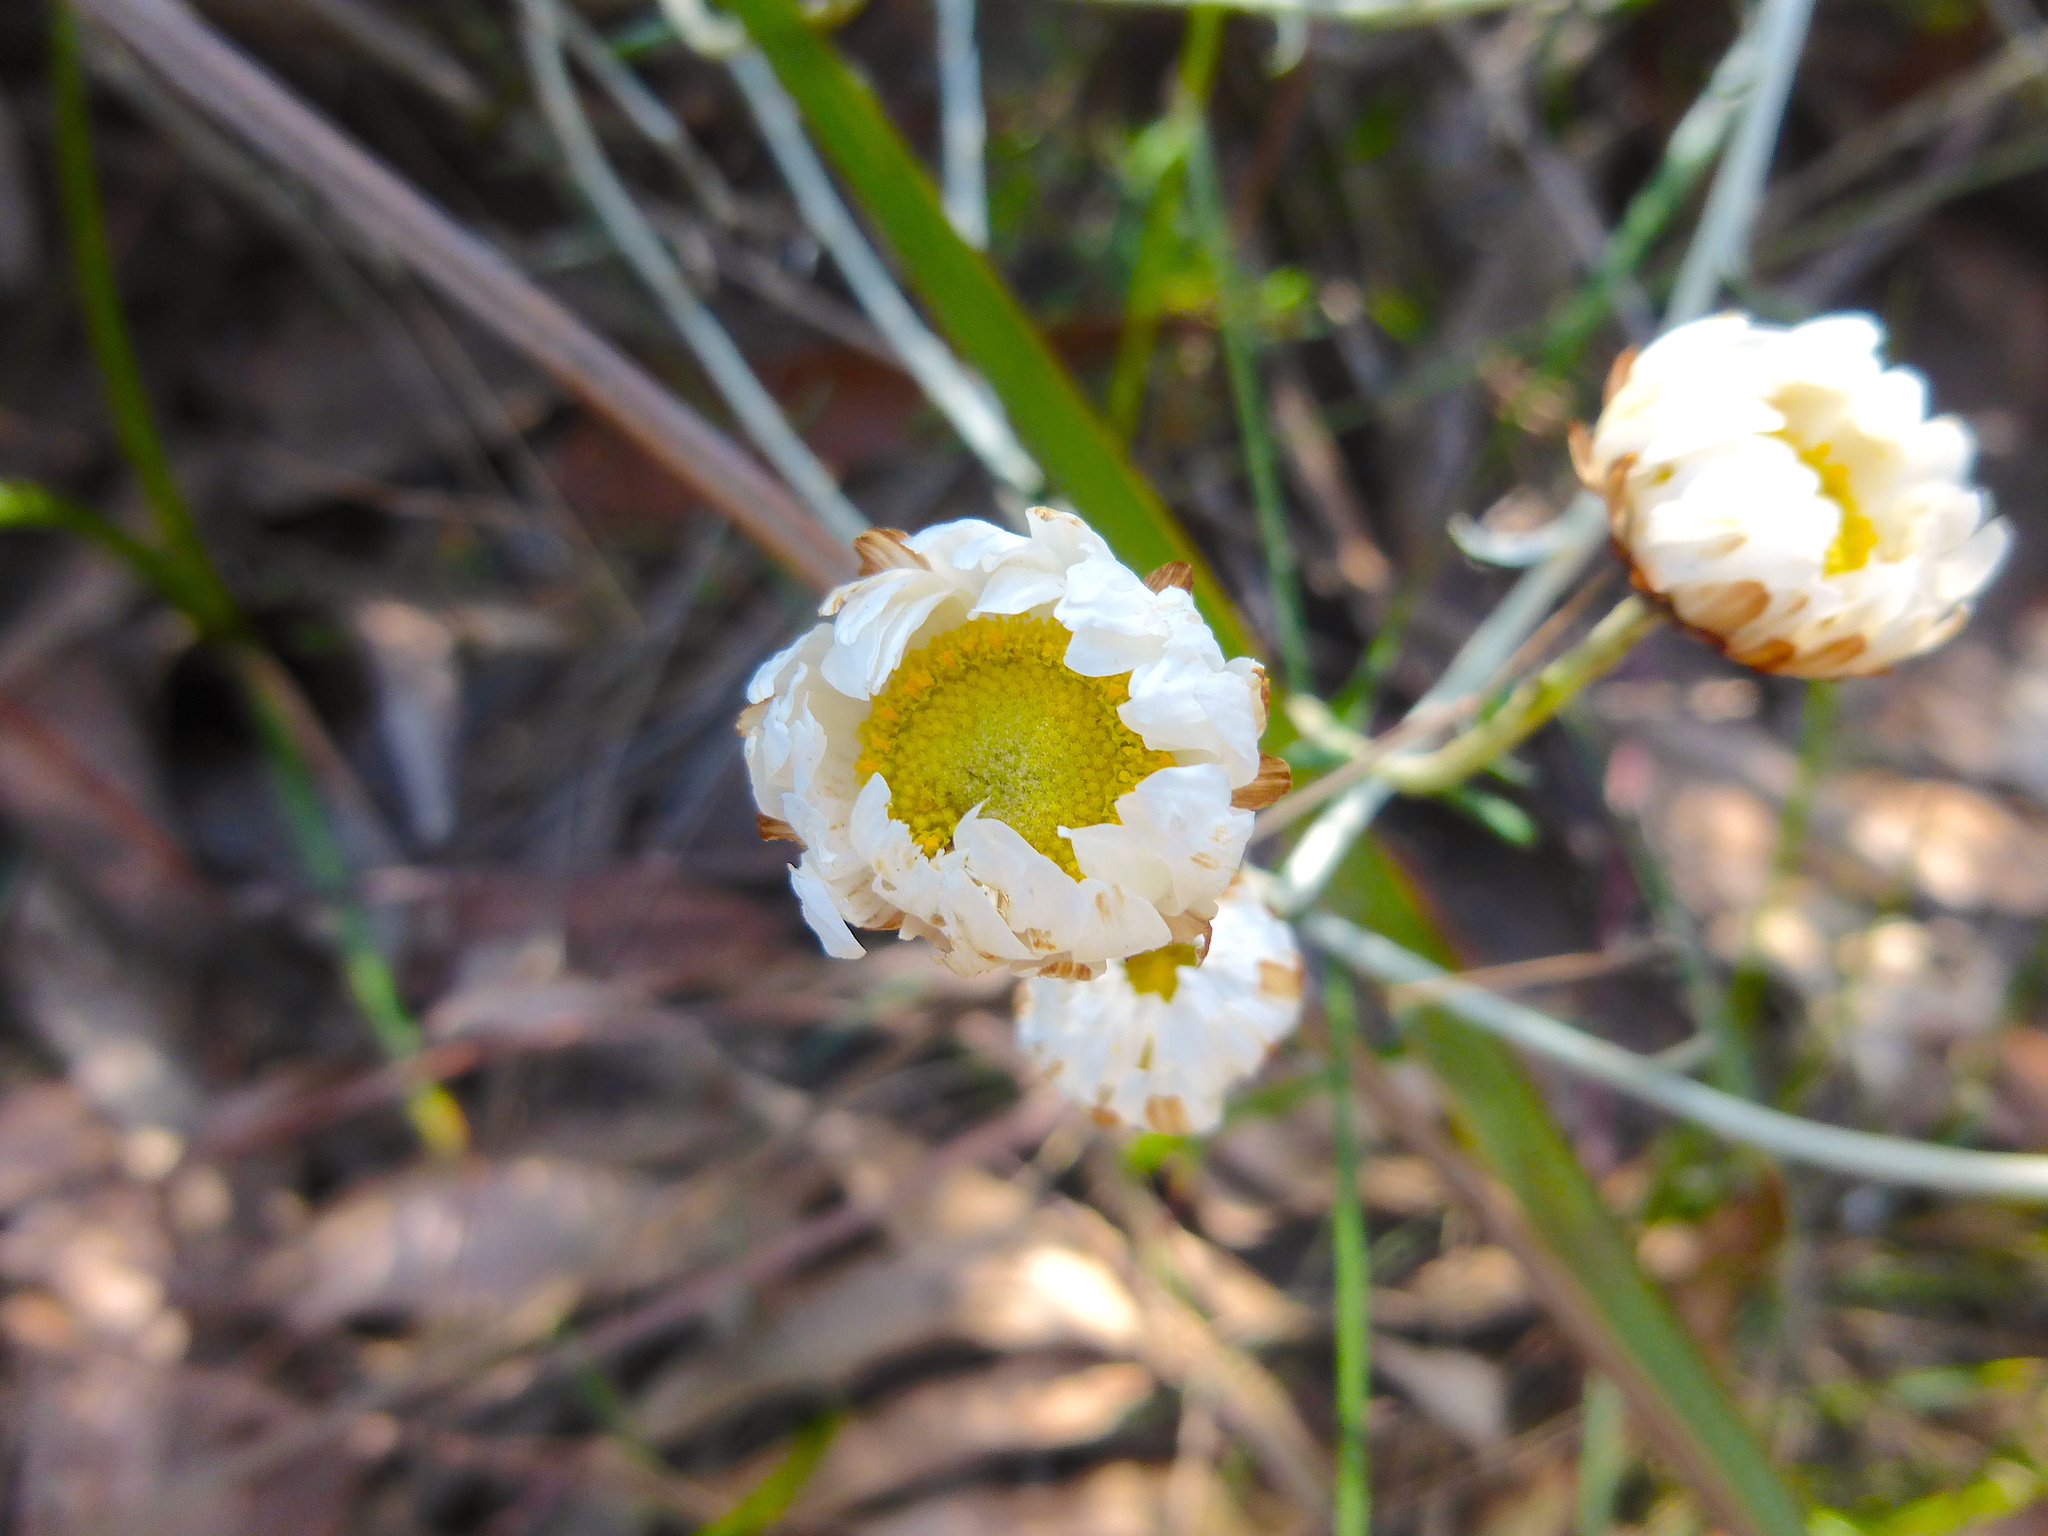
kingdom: Plantae
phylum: Tracheophyta
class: Magnoliopsida
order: Asterales
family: Asteraceae
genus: Argentipallium
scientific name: Argentipallium obtusifolium
